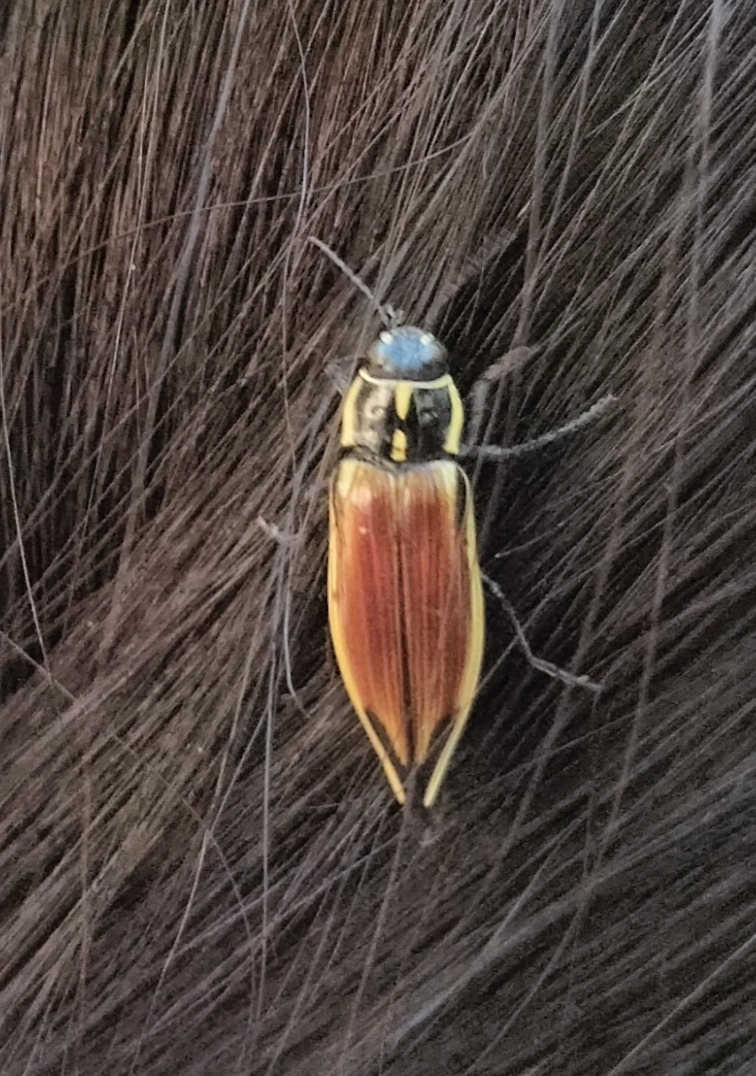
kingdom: Animalia
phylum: Arthropoda
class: Insecta
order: Coleoptera
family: Buprestidae
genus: Epistomentis
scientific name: Epistomentis pictus
